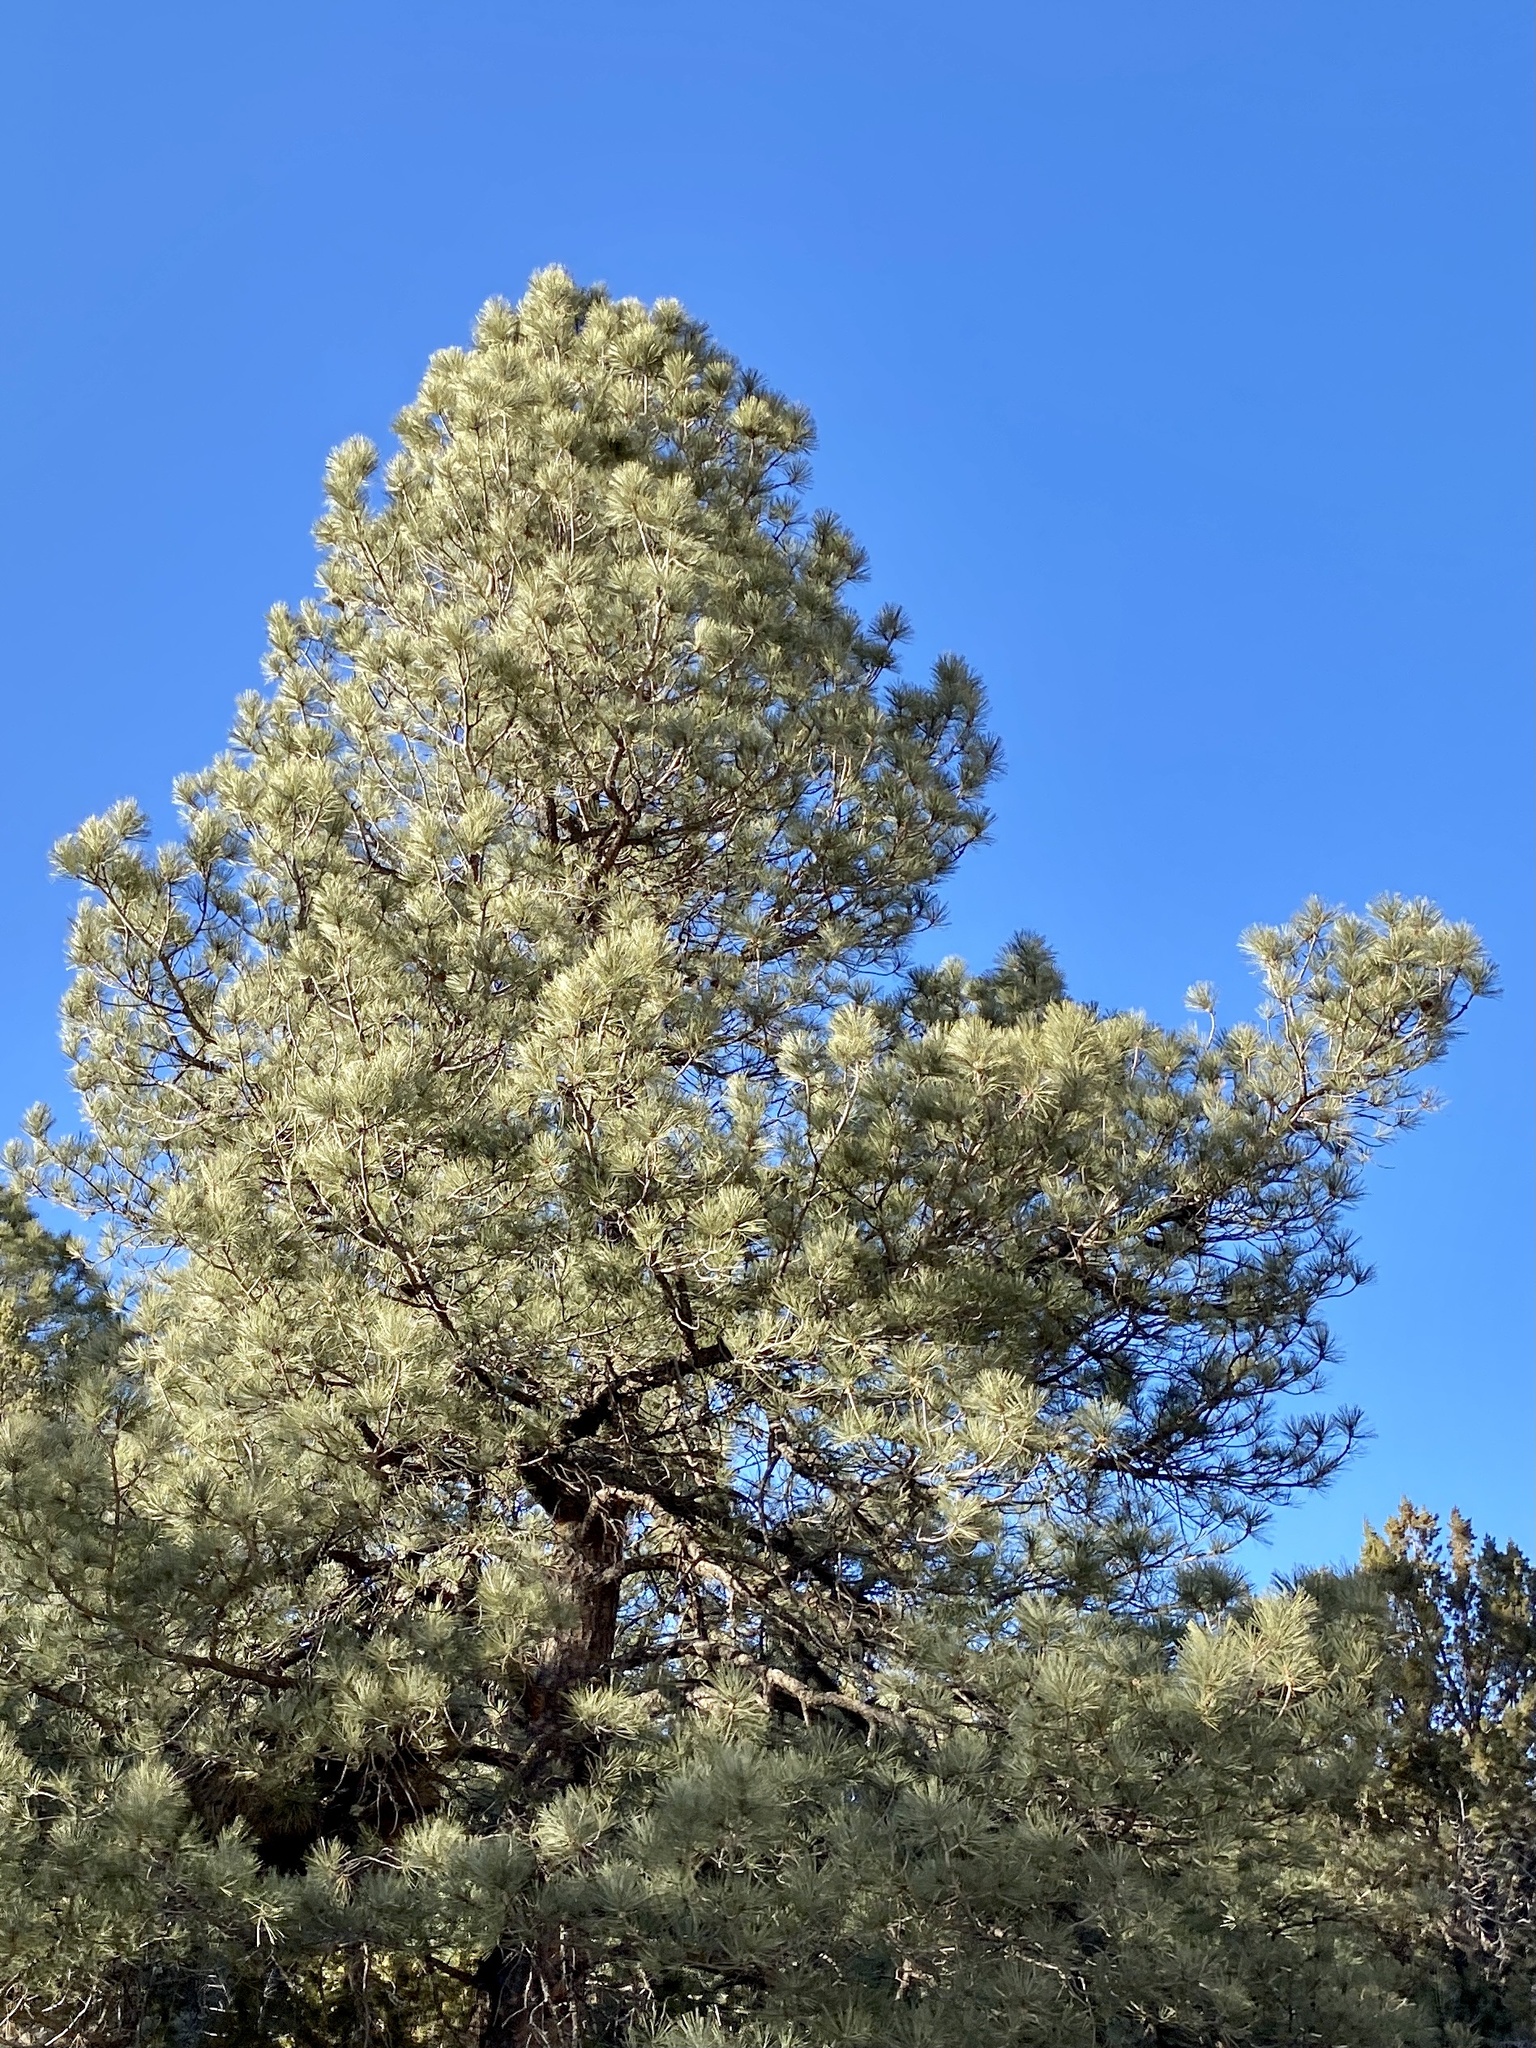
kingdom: Plantae
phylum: Tracheophyta
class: Pinopsida
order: Pinales
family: Pinaceae
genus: Pinus
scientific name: Pinus ponderosa
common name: Western yellow-pine
